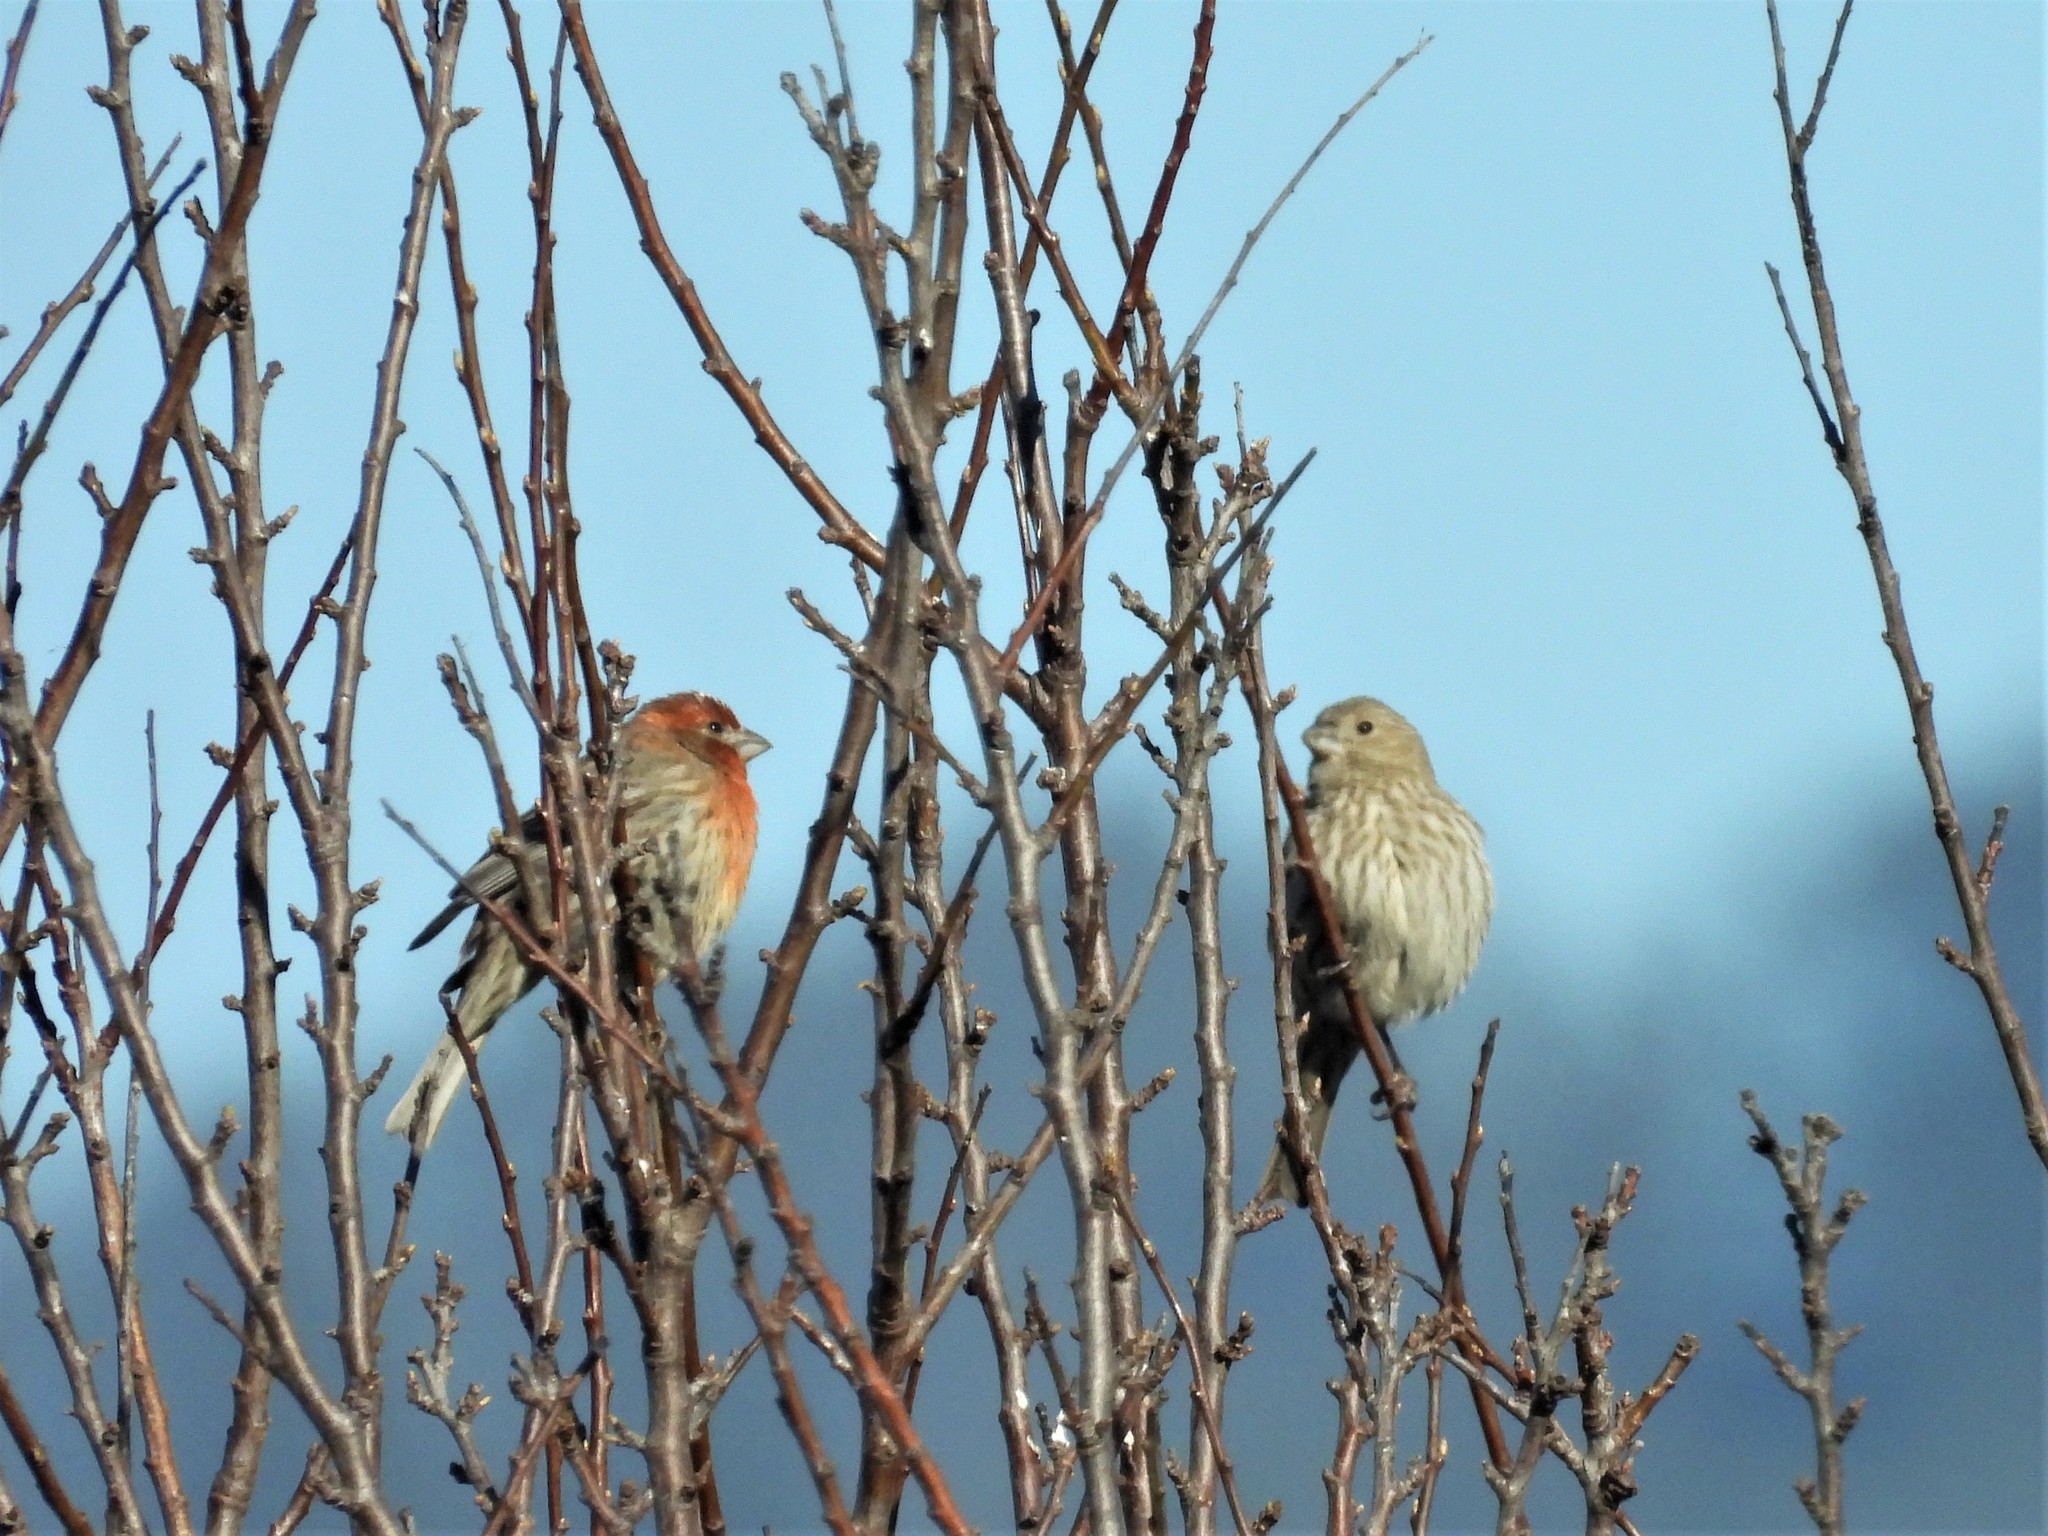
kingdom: Animalia
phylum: Chordata
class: Aves
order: Passeriformes
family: Fringillidae
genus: Haemorhous
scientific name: Haemorhous mexicanus
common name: House finch
